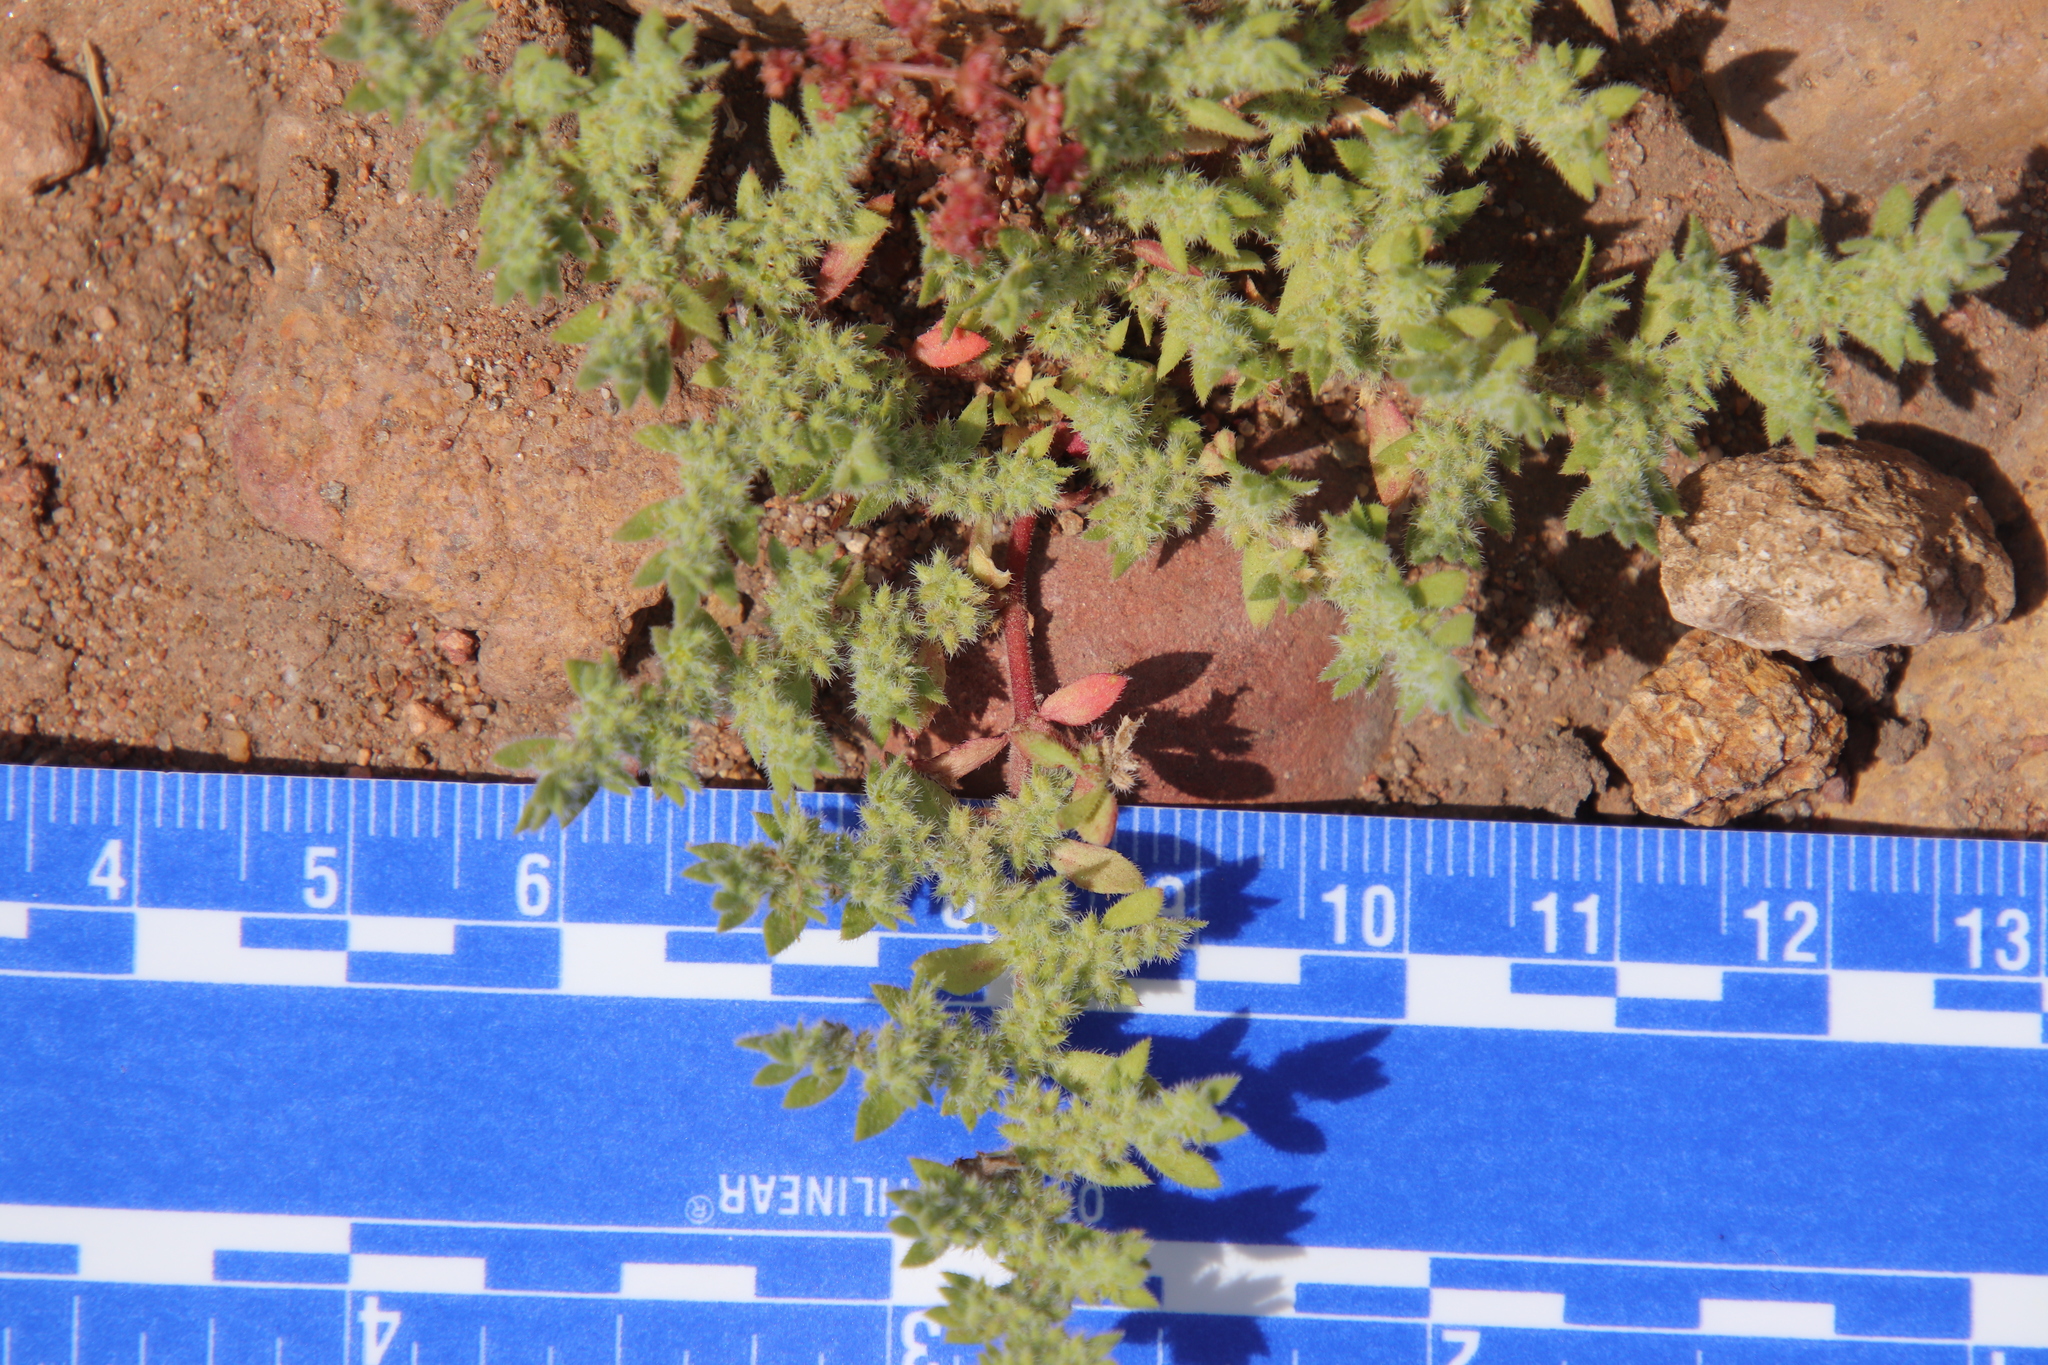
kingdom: Plantae
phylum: Tracheophyta
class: Magnoliopsida
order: Caryophyllales
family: Caryophyllaceae
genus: Herniaria
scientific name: Herniaria hirsuta
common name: Hairy rupturewort
